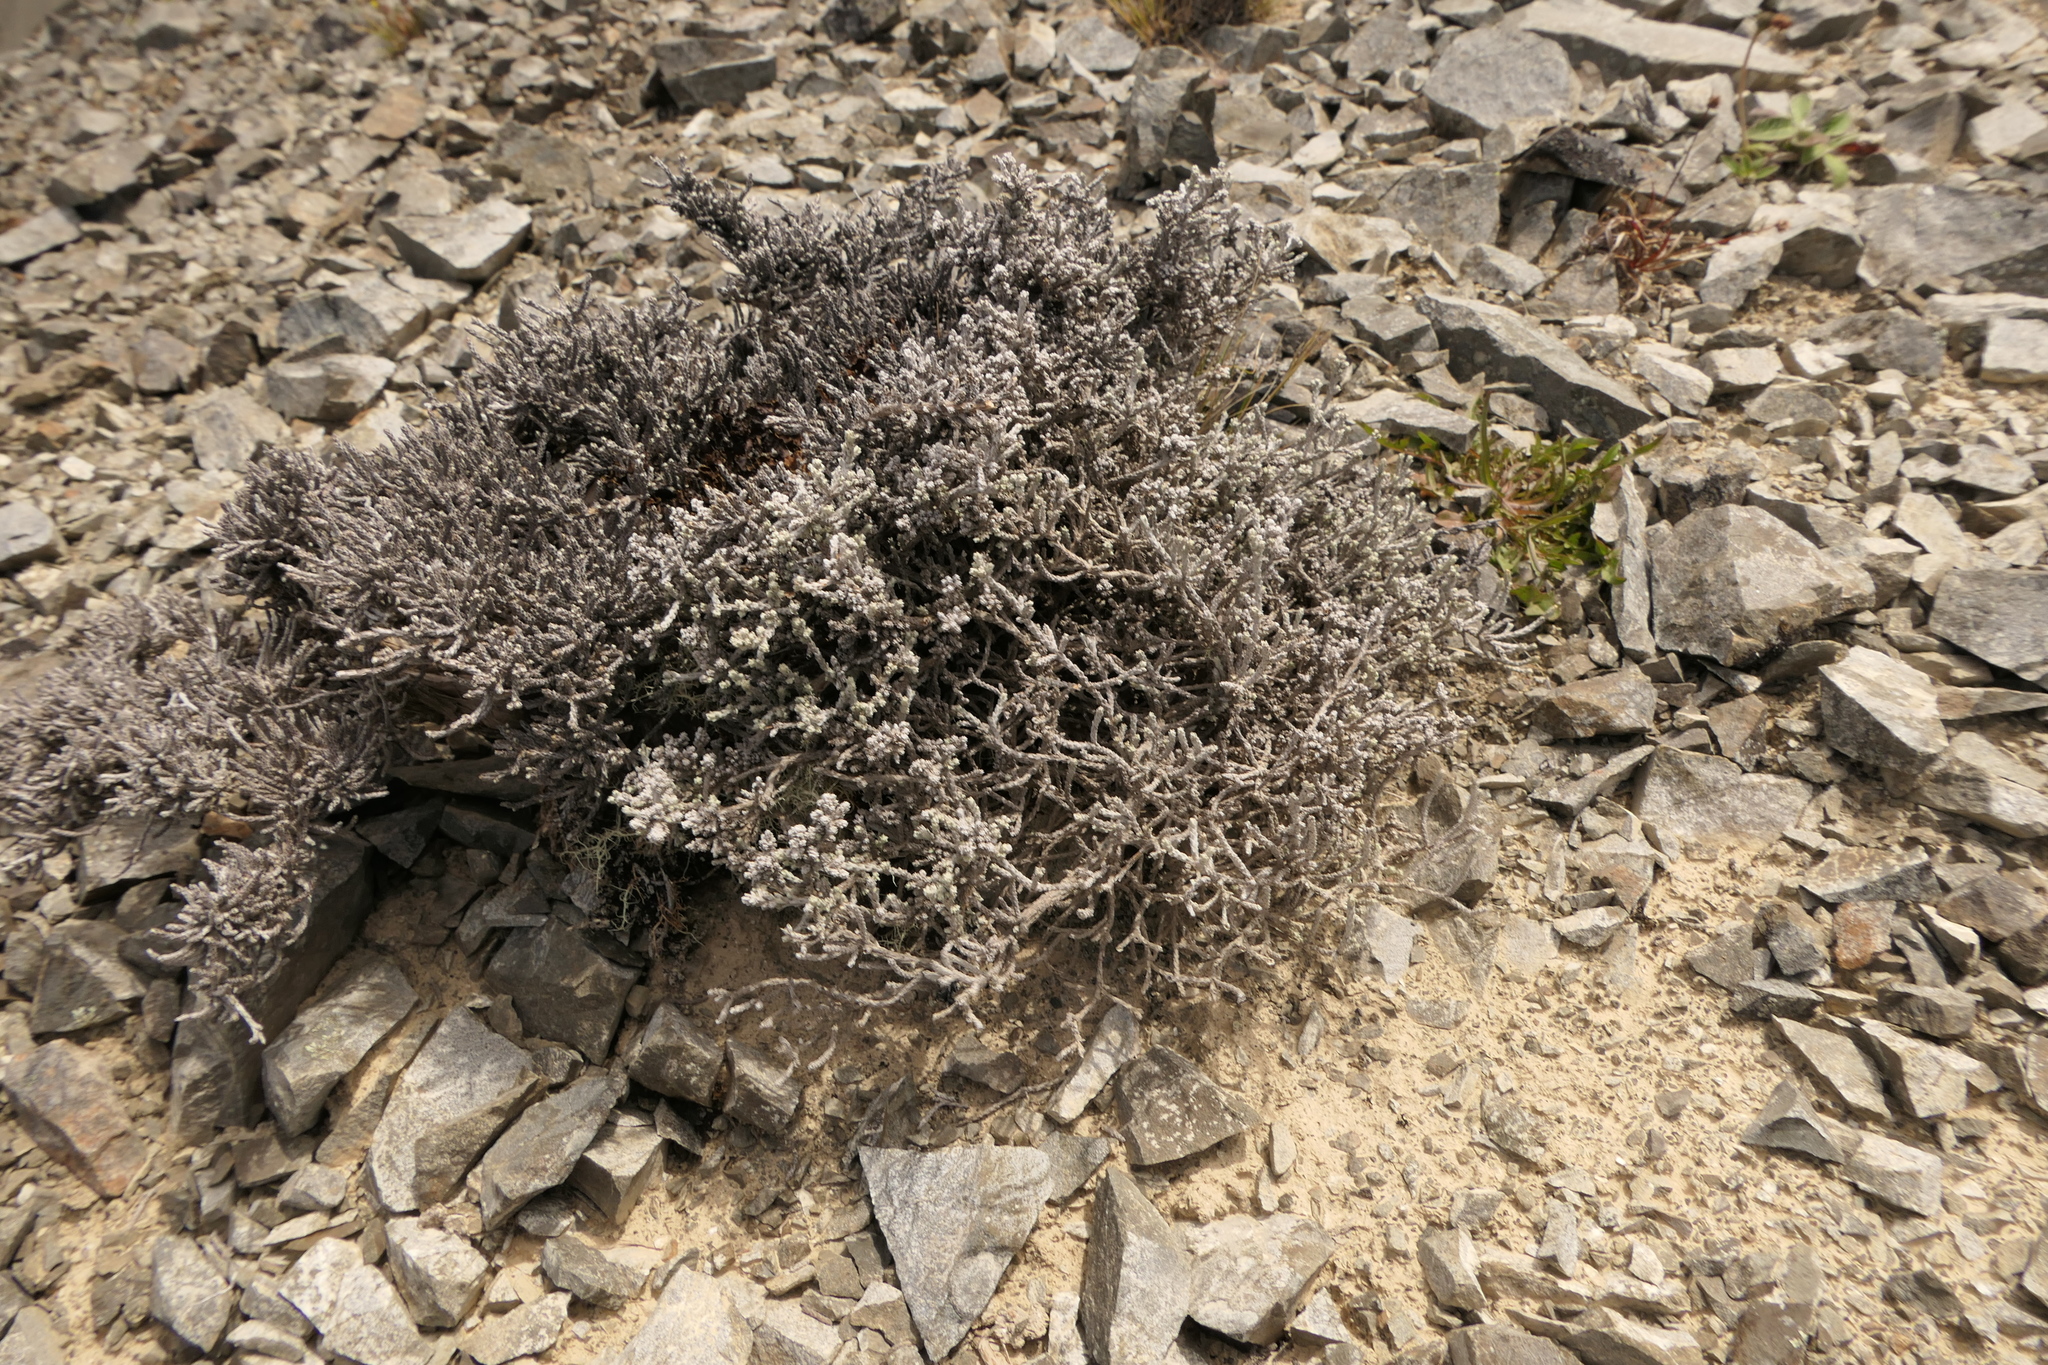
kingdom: Plantae
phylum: Tracheophyta
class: Magnoliopsida
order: Asterales
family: Asteraceae
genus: Ozothamnus
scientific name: Ozothamnus depressus
